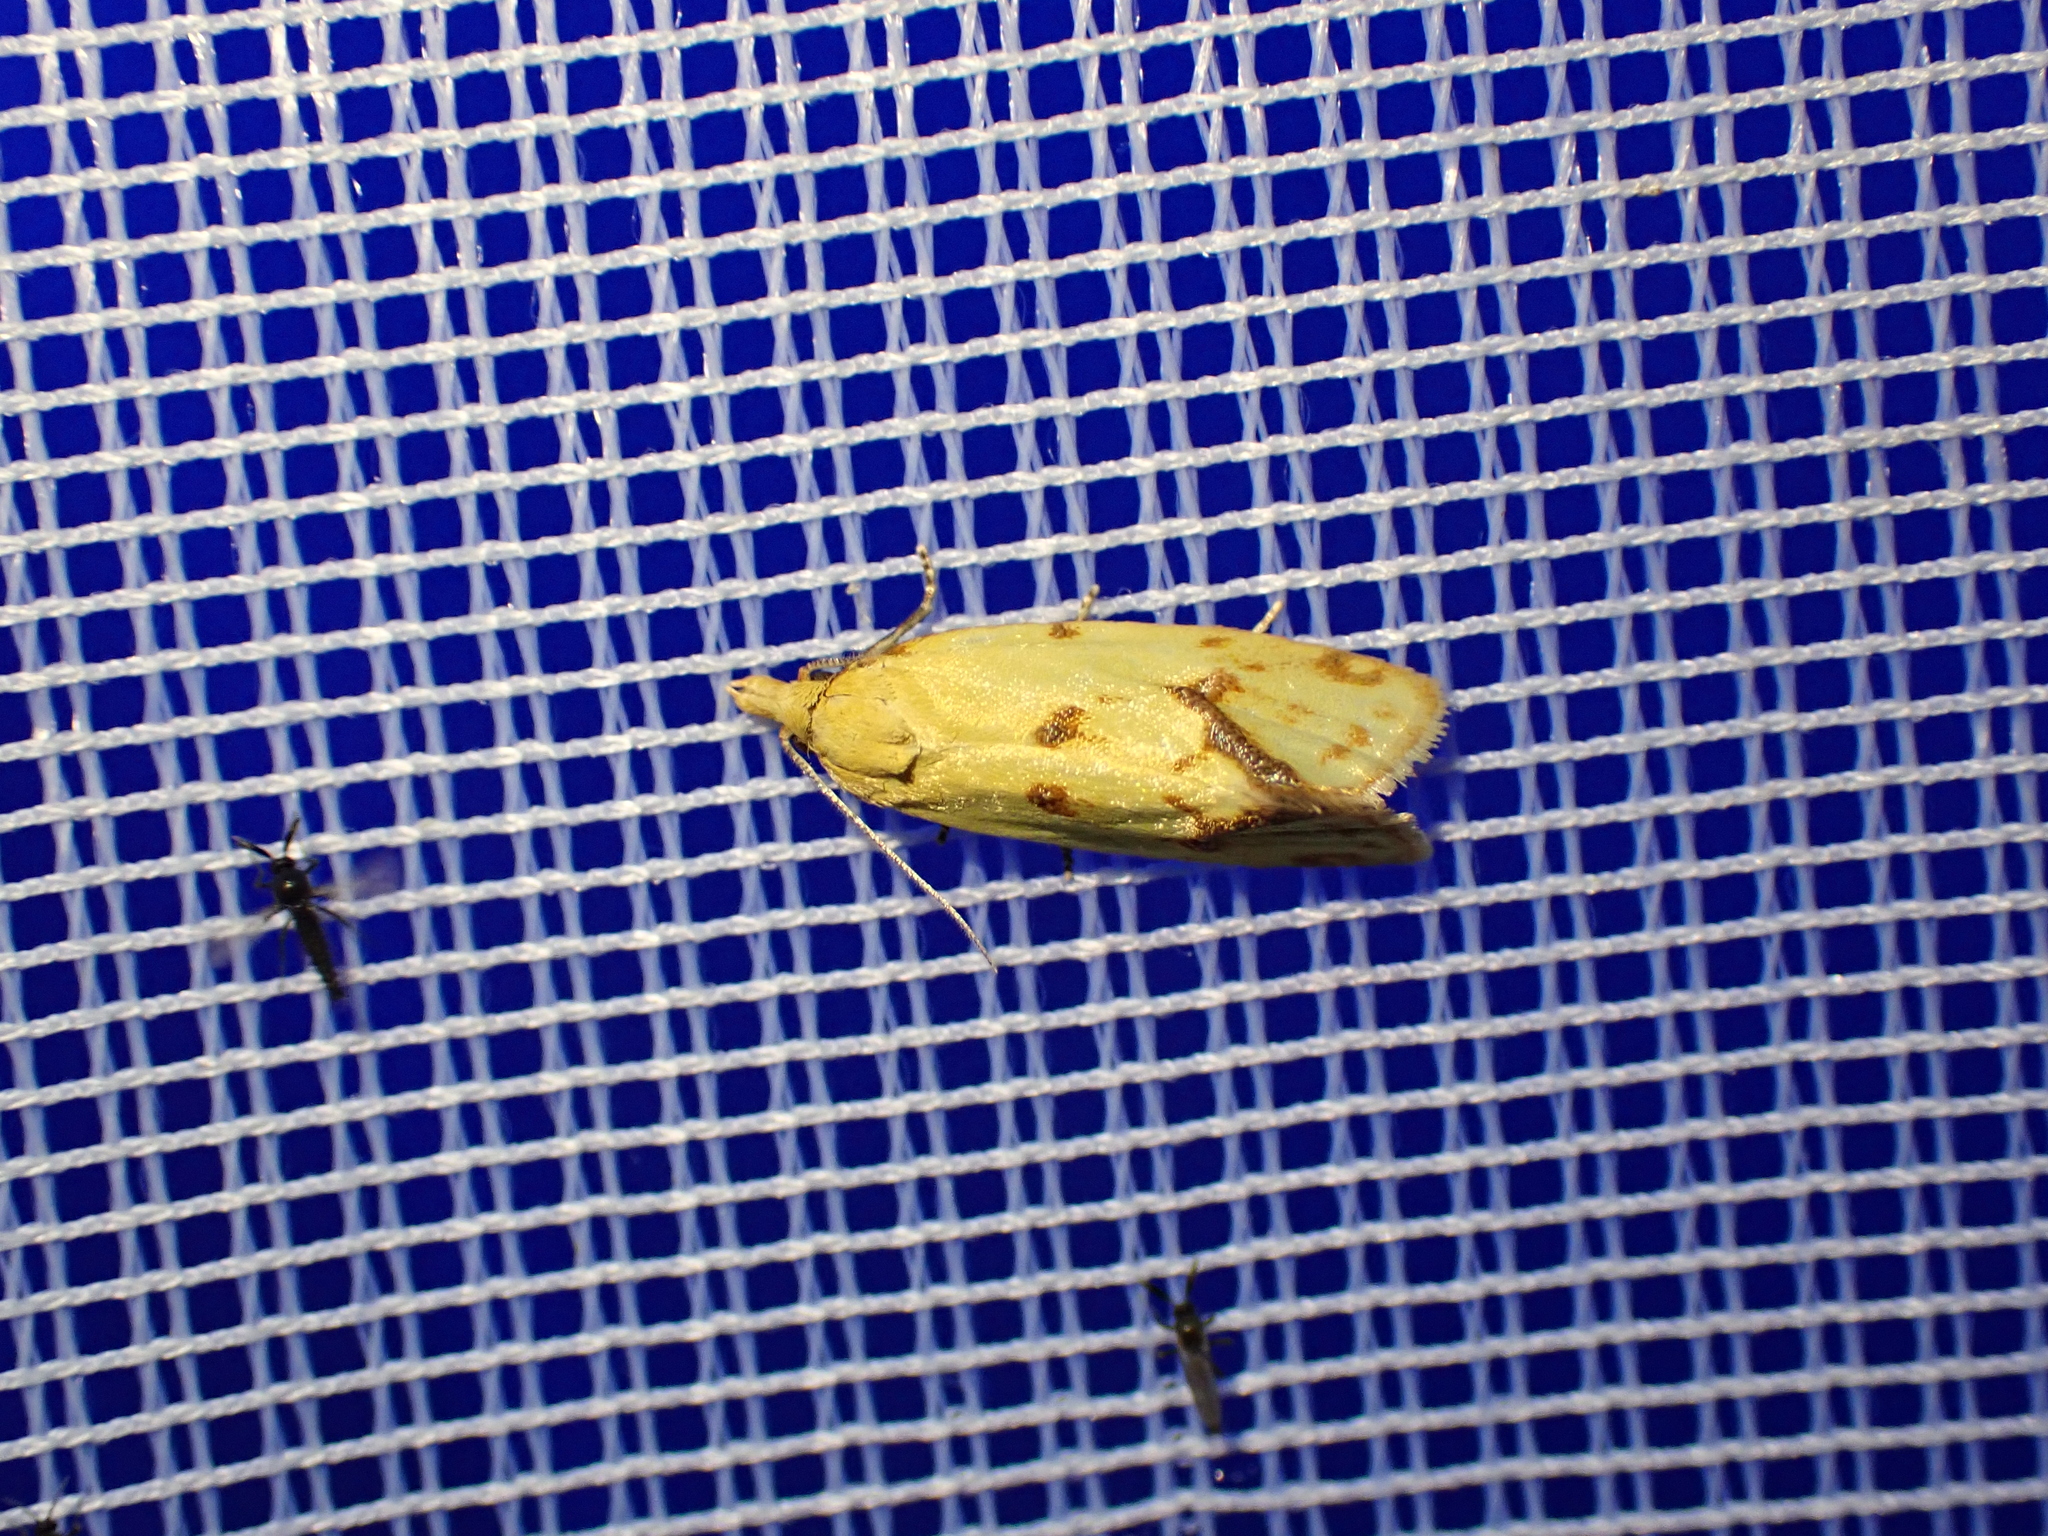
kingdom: Animalia
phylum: Arthropoda
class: Insecta
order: Lepidoptera
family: Tortricidae
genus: Agapeta
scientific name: Agapeta hamana
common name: Common yellow conch
